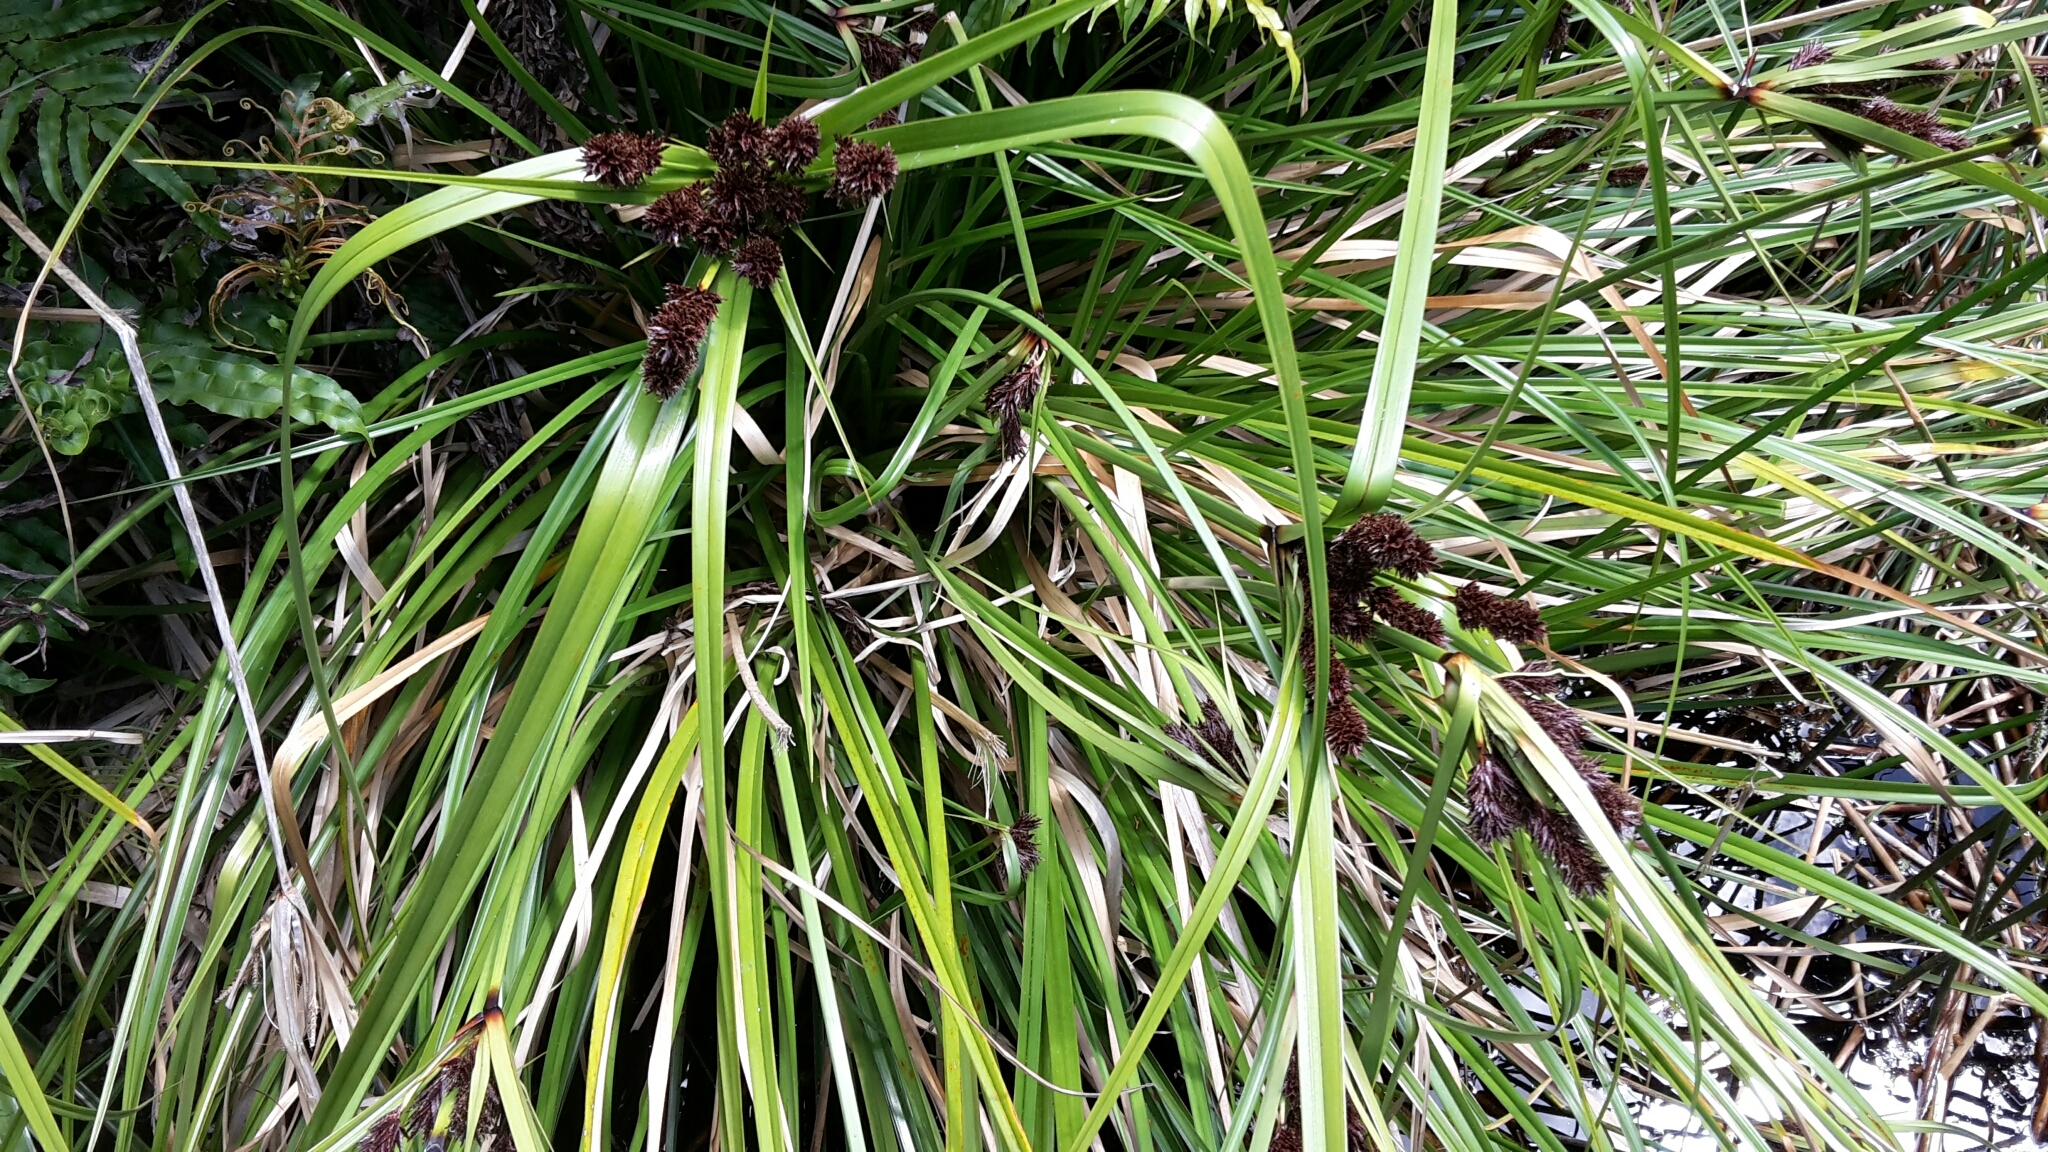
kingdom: Plantae
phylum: Tracheophyta
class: Liliopsida
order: Poales
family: Cyperaceae
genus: Cyperus
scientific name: Cyperus ustulatus
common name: Giant umbrella-sedge
